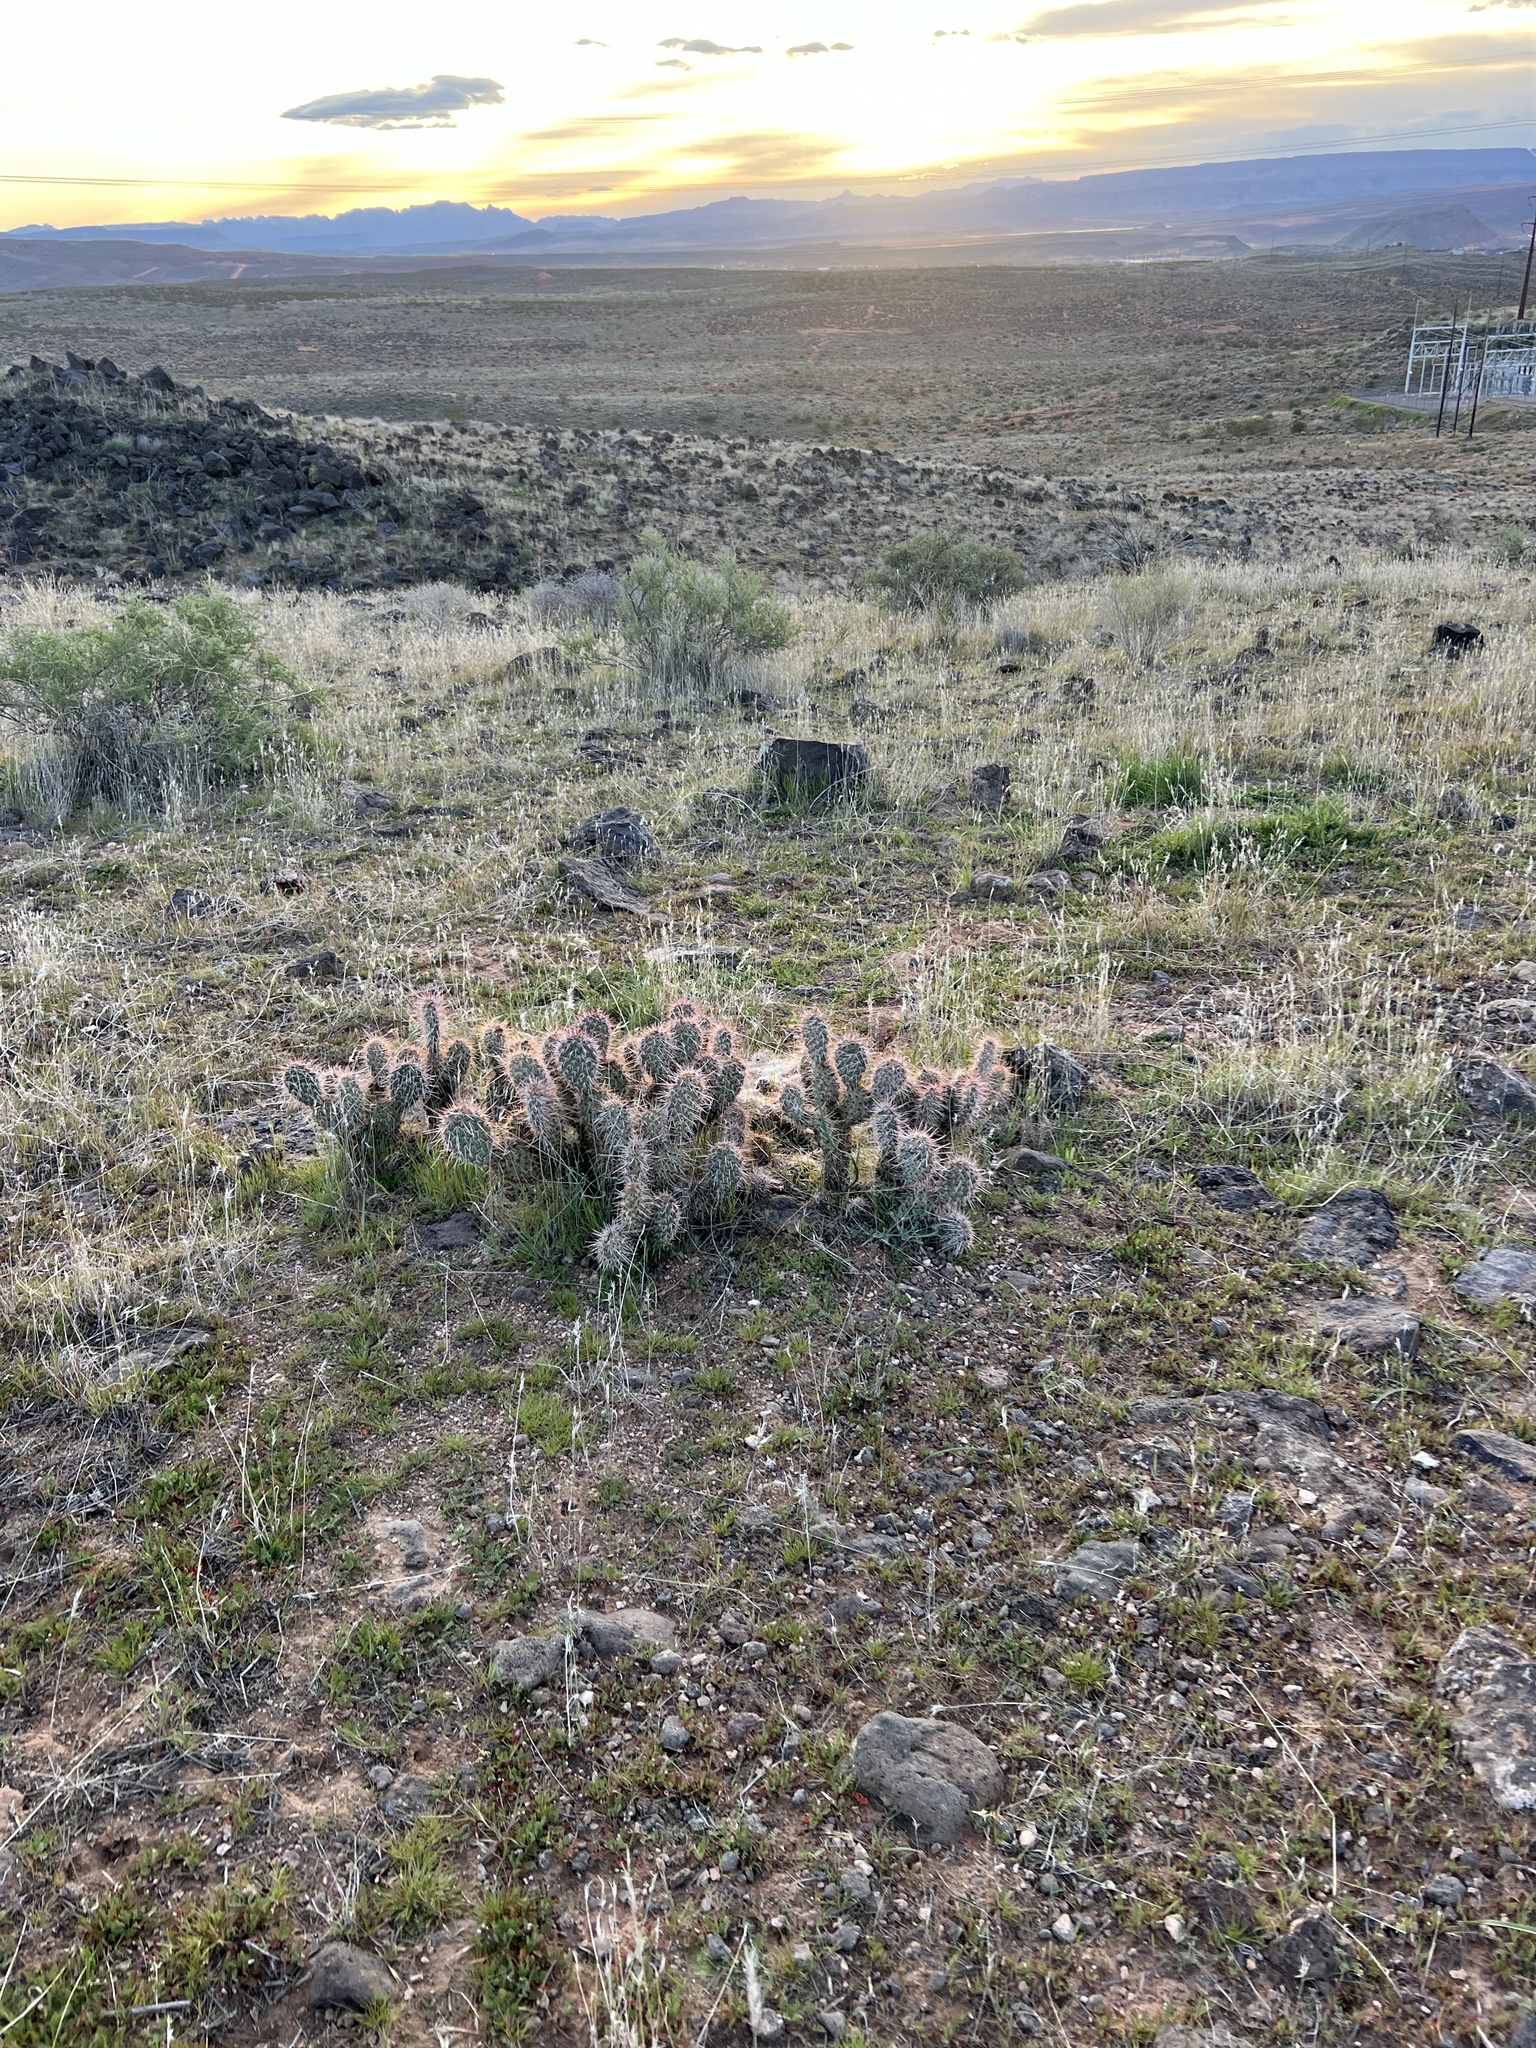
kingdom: Plantae
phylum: Tracheophyta
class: Magnoliopsida
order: Caryophyllales
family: Cactaceae
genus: Opuntia
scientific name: Opuntia polyacantha
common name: Plains prickly-pear
